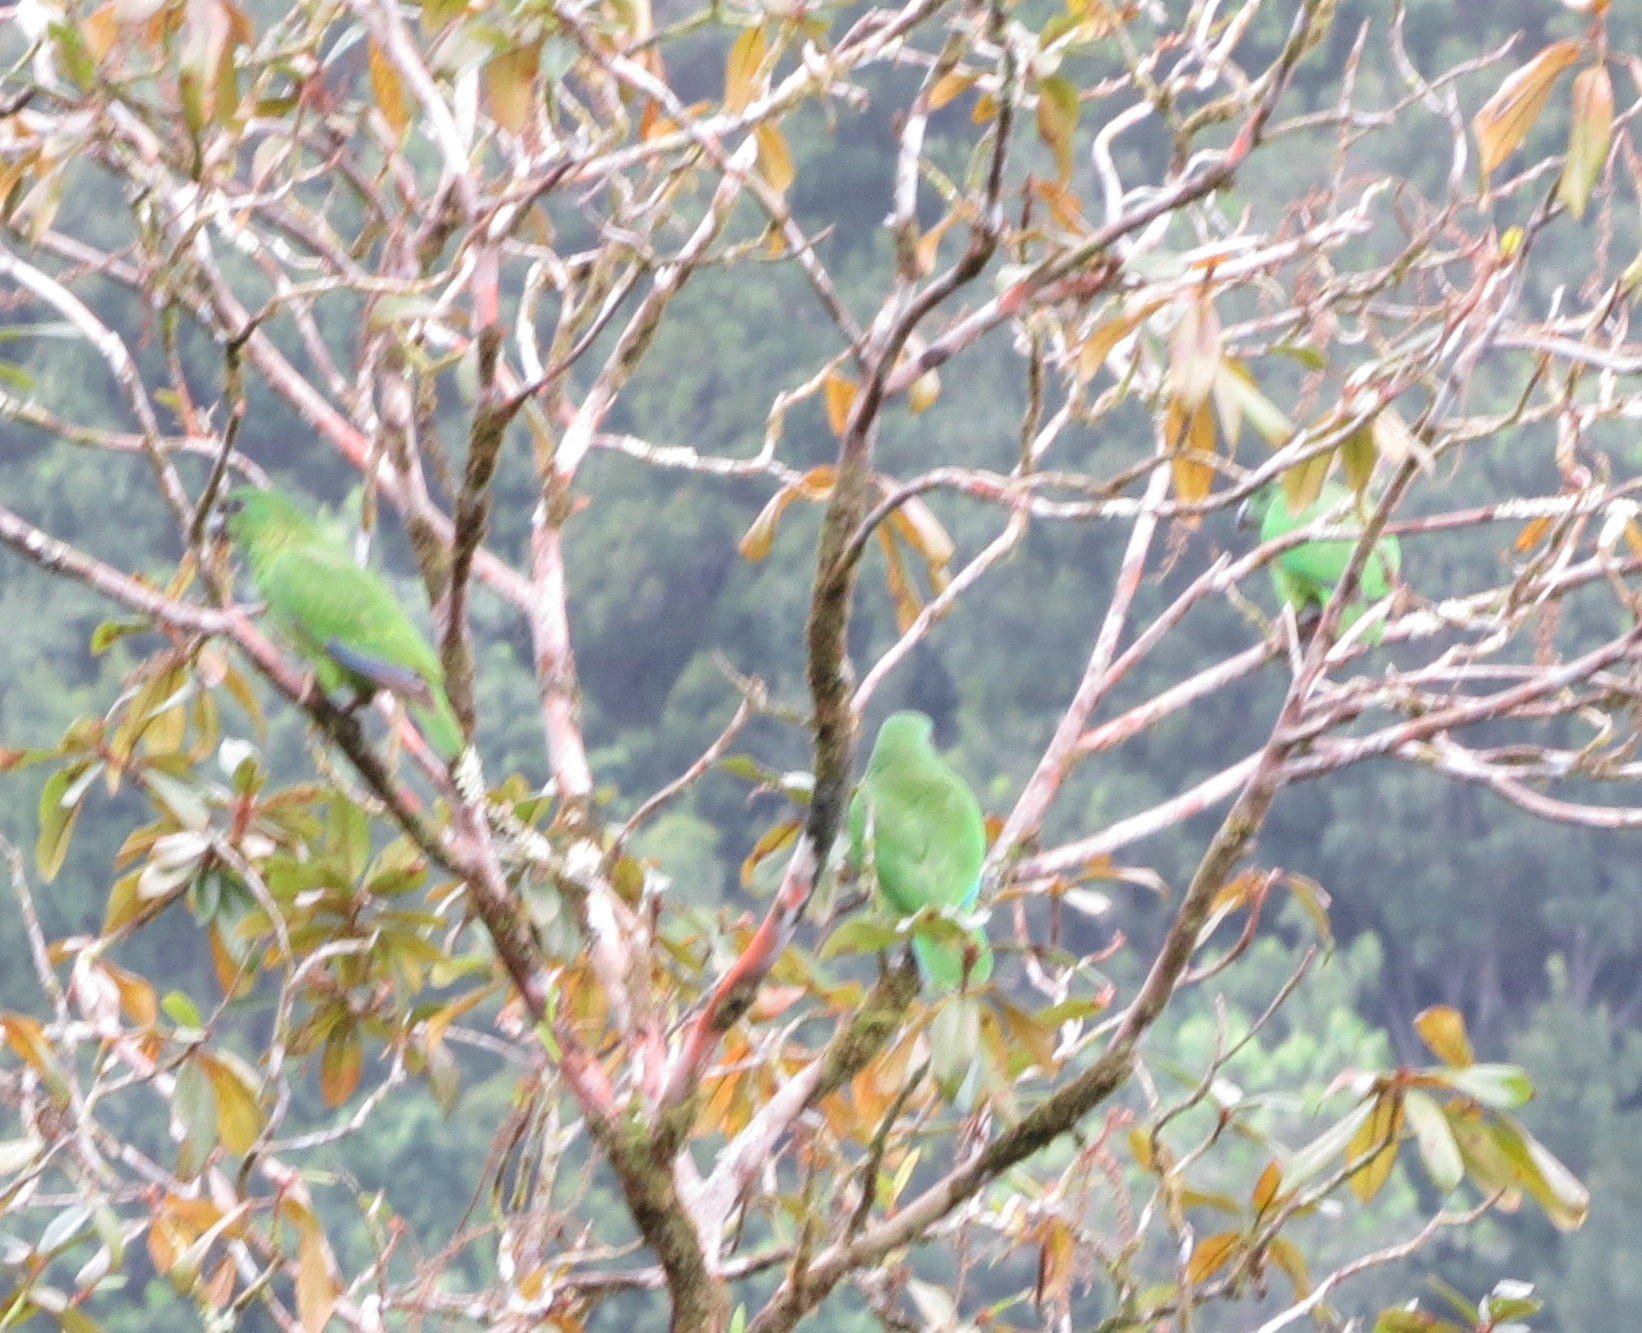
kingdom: Animalia
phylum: Chordata
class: Aves
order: Psittaciformes
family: Psittacidae
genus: Amazona
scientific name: Amazona agilis
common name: Black-billed amazon
